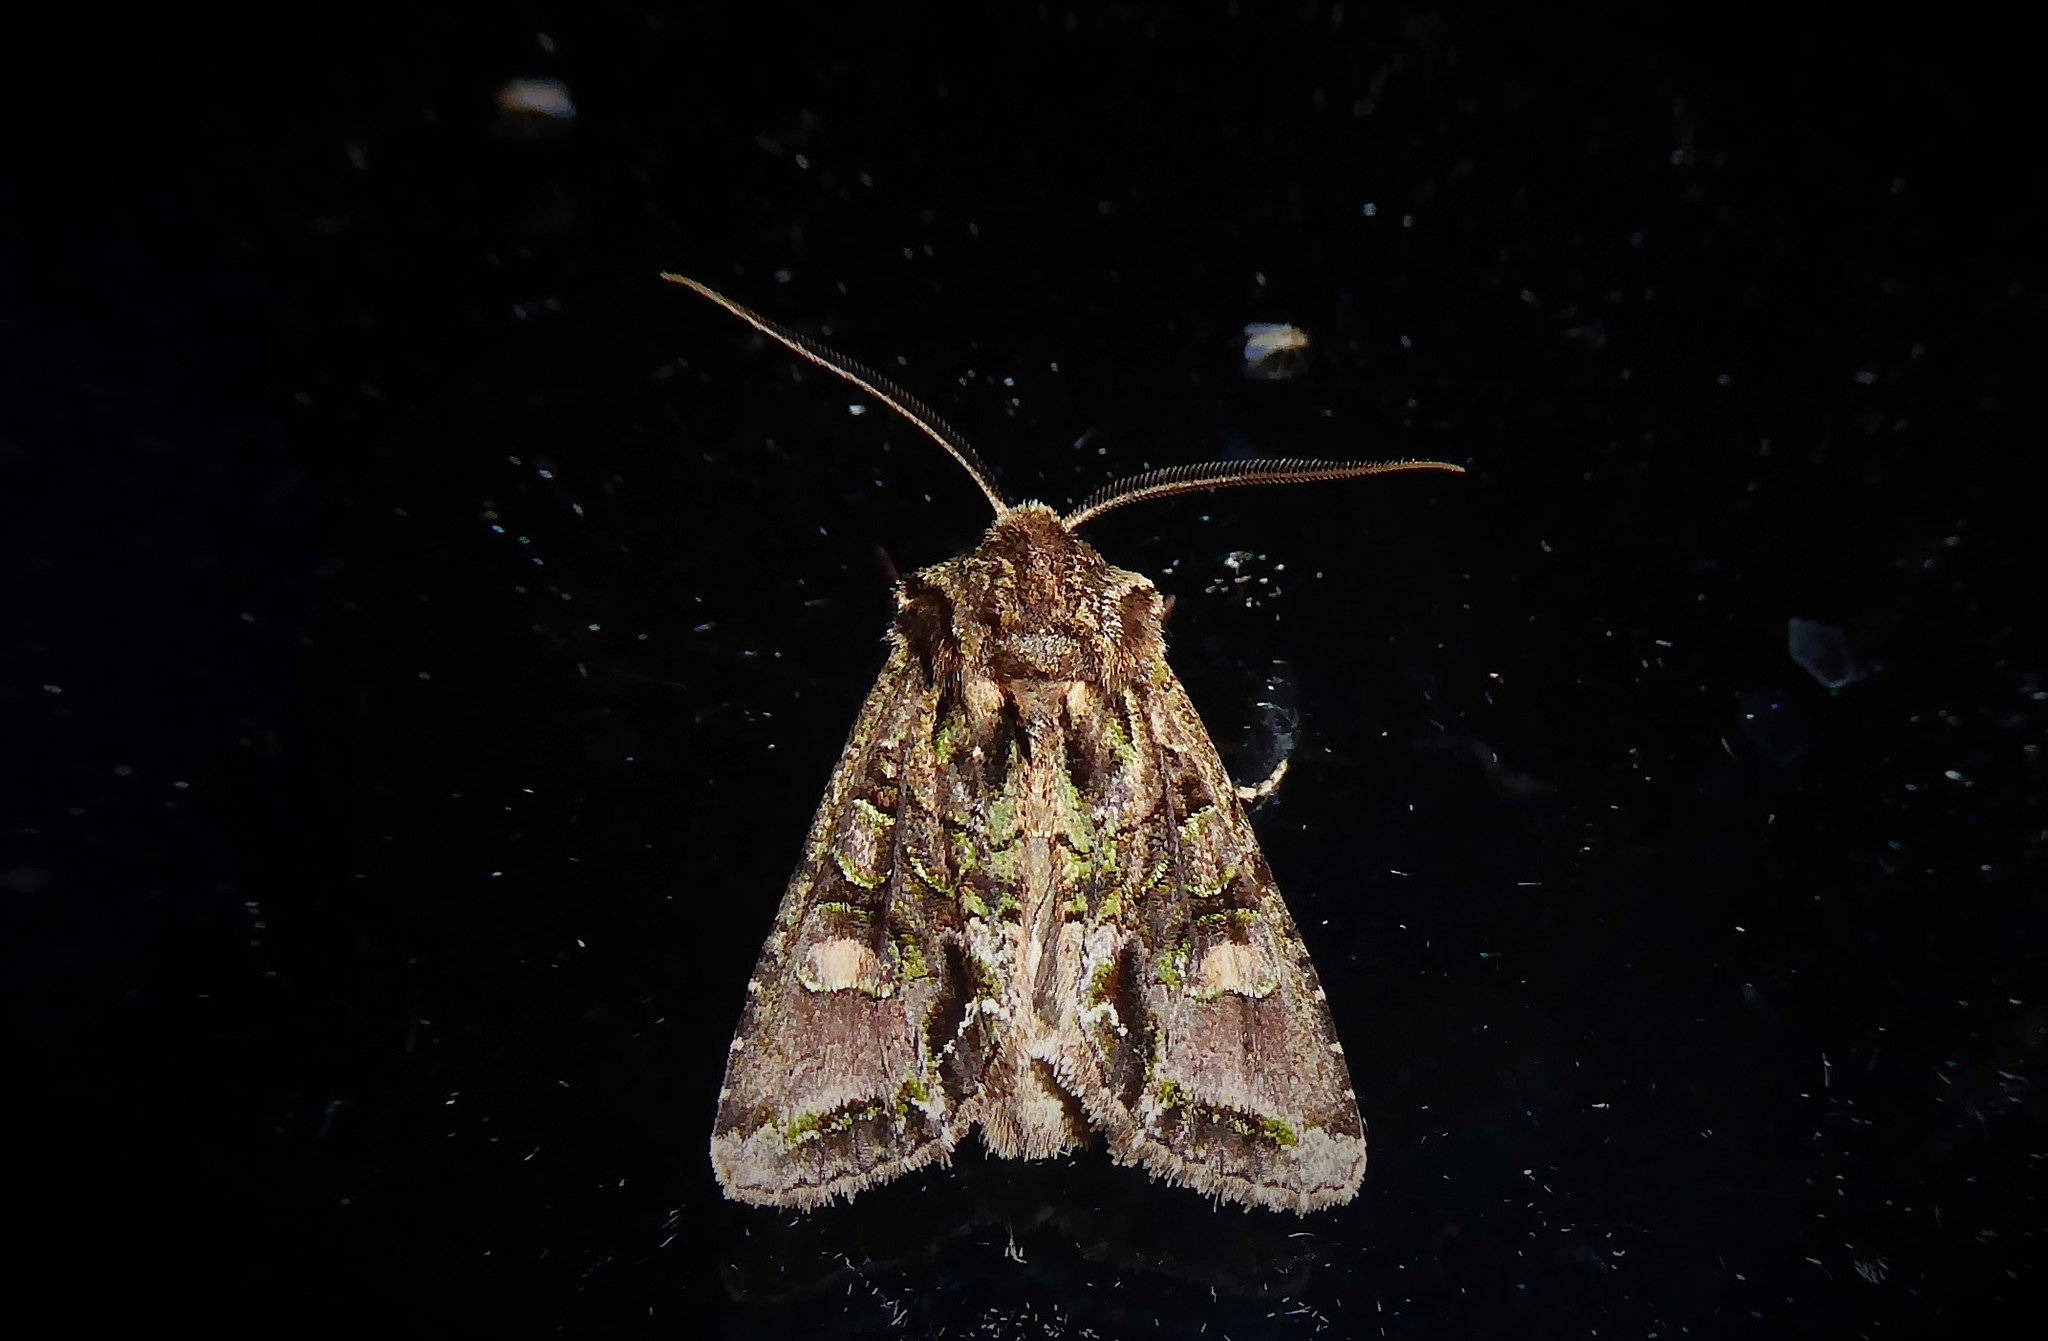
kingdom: Animalia
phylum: Arthropoda
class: Insecta
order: Lepidoptera
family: Noctuidae
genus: Ichneutica
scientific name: Ichneutica insignis
